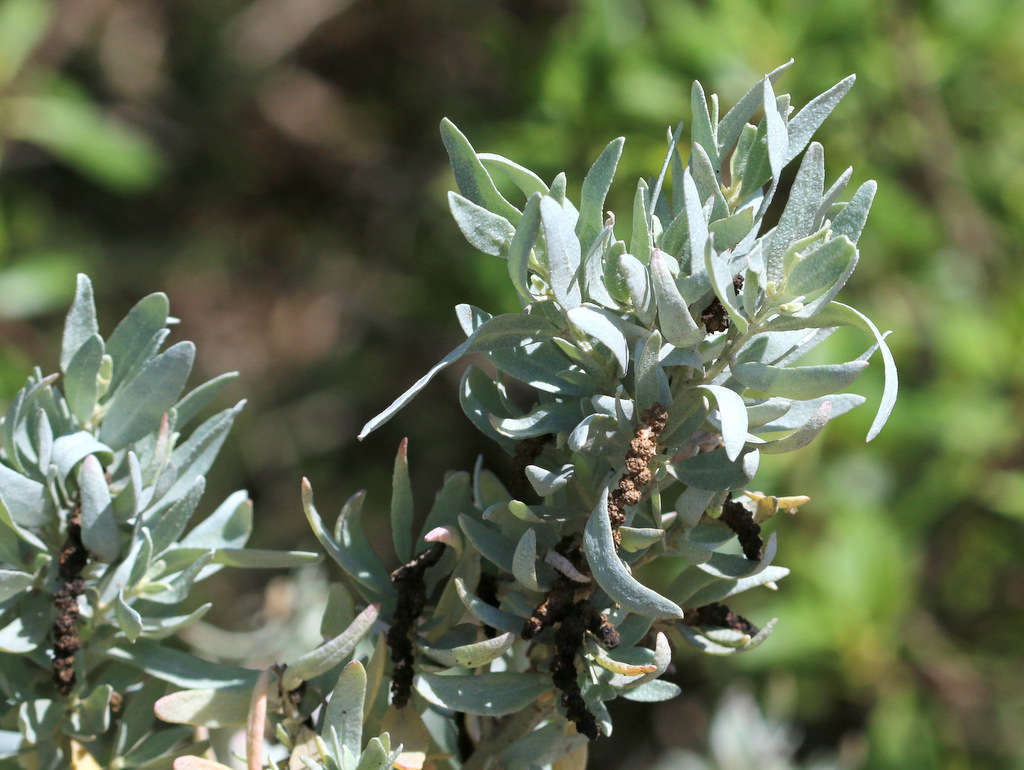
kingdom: Plantae
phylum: Tracheophyta
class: Magnoliopsida
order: Caryophyllales
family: Amaranthaceae
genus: Atriplex
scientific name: Atriplex cinerea
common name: Grey saltbush
